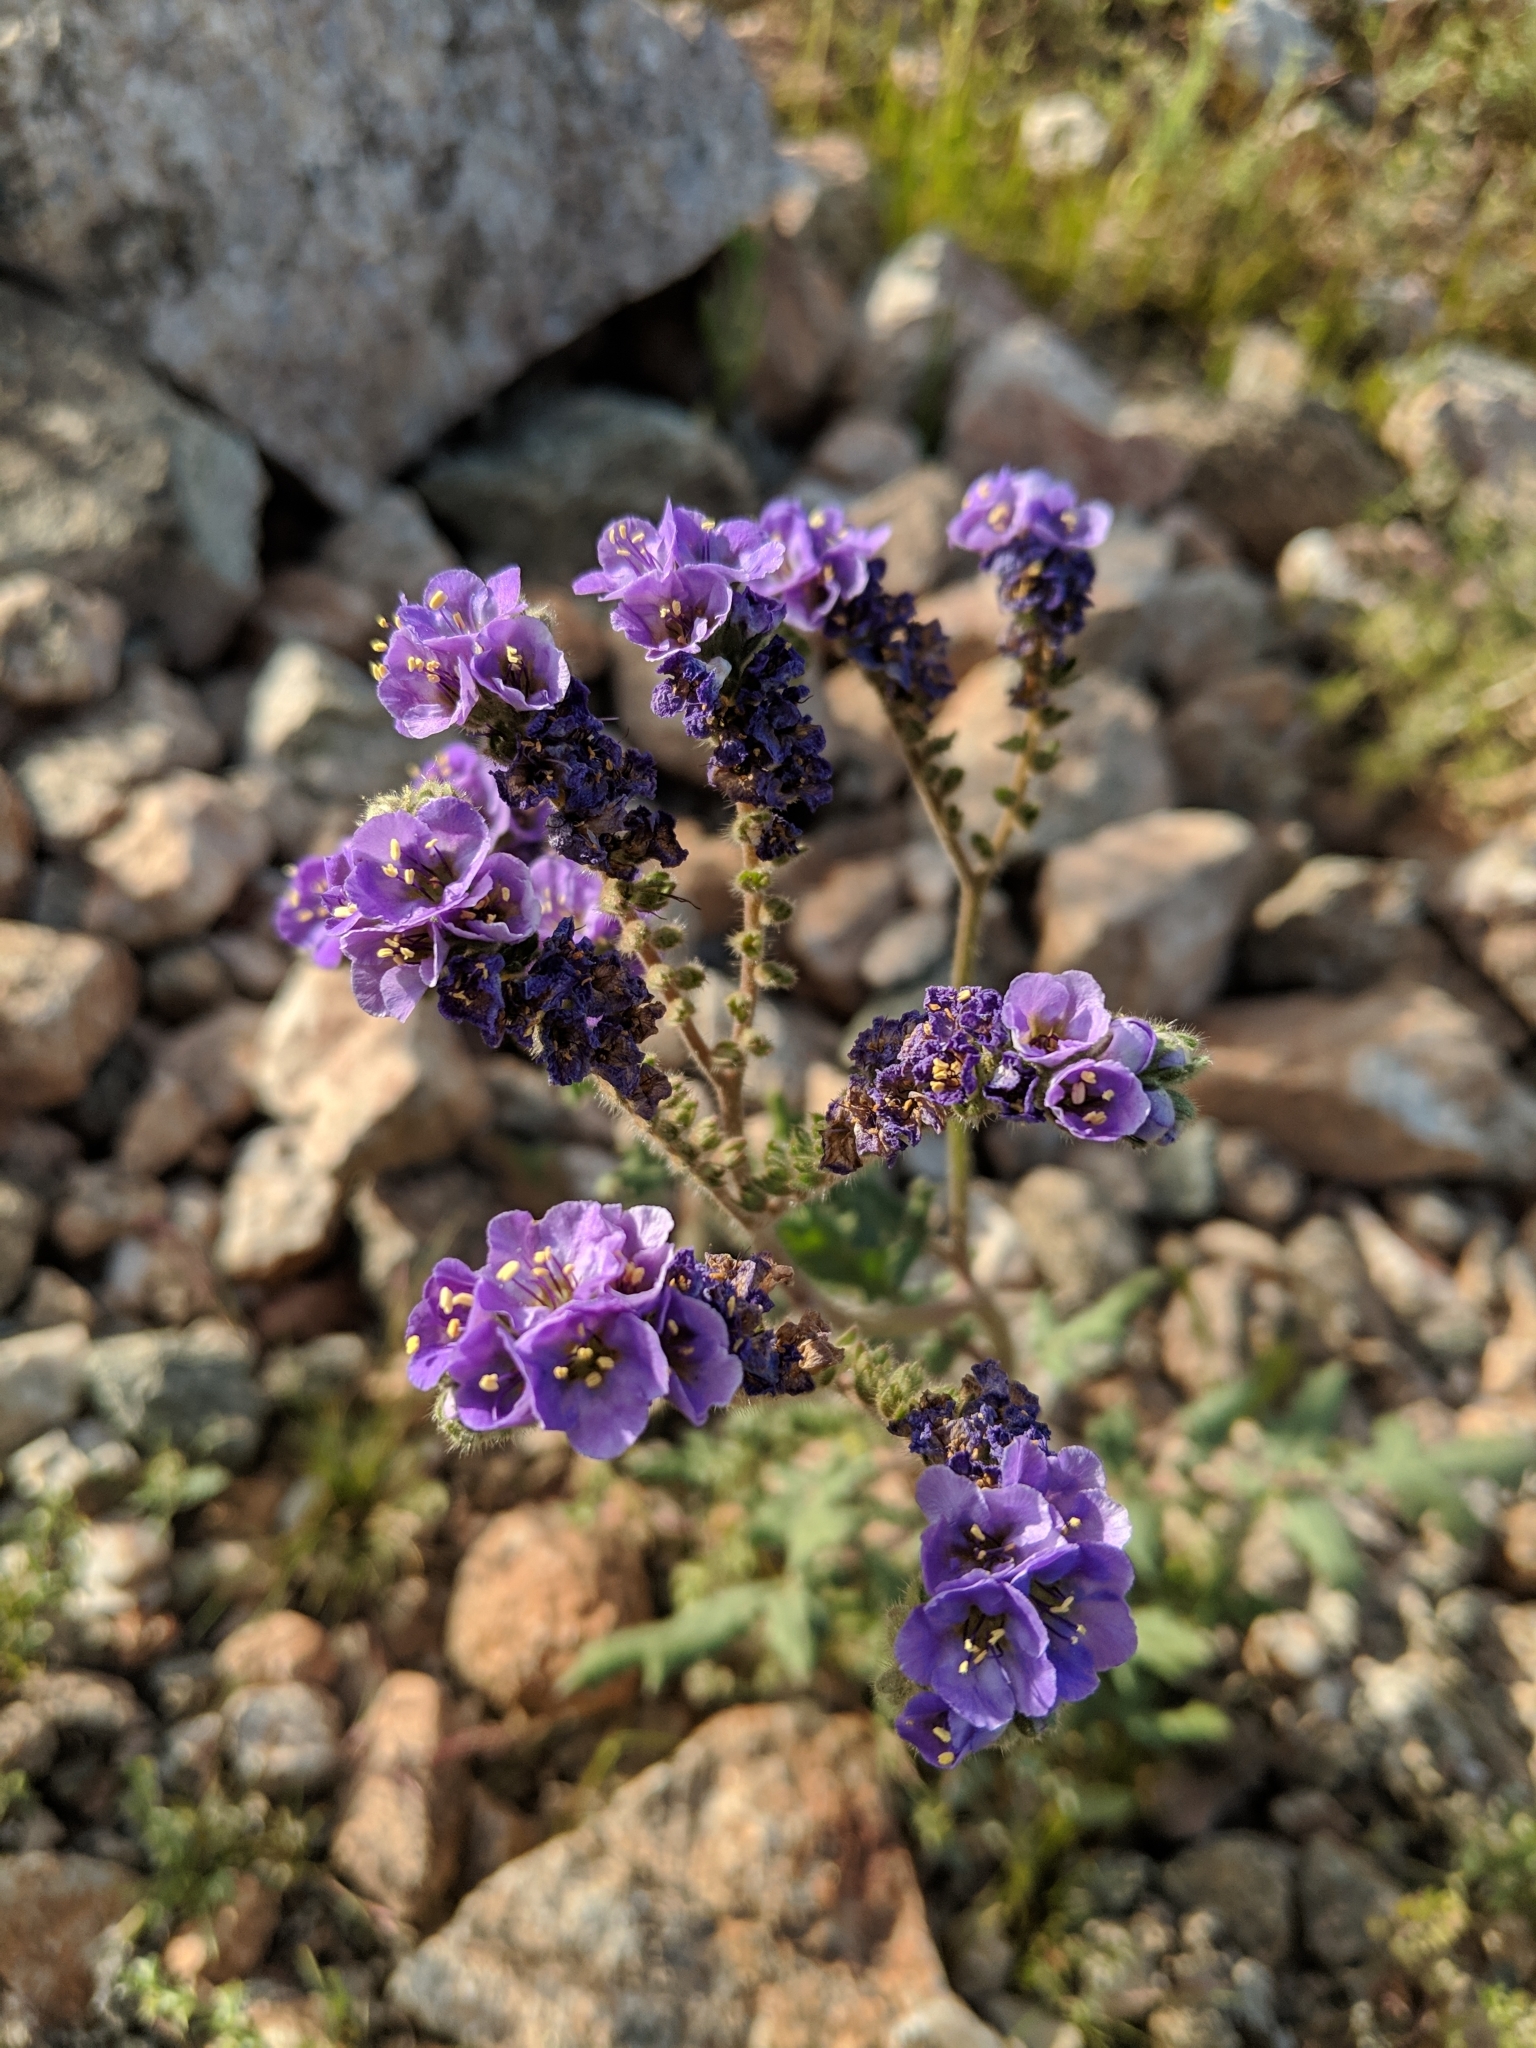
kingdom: Plantae
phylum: Tracheophyta
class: Magnoliopsida
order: Boraginales
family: Hydrophyllaceae
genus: Phacelia
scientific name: Phacelia crenulata
